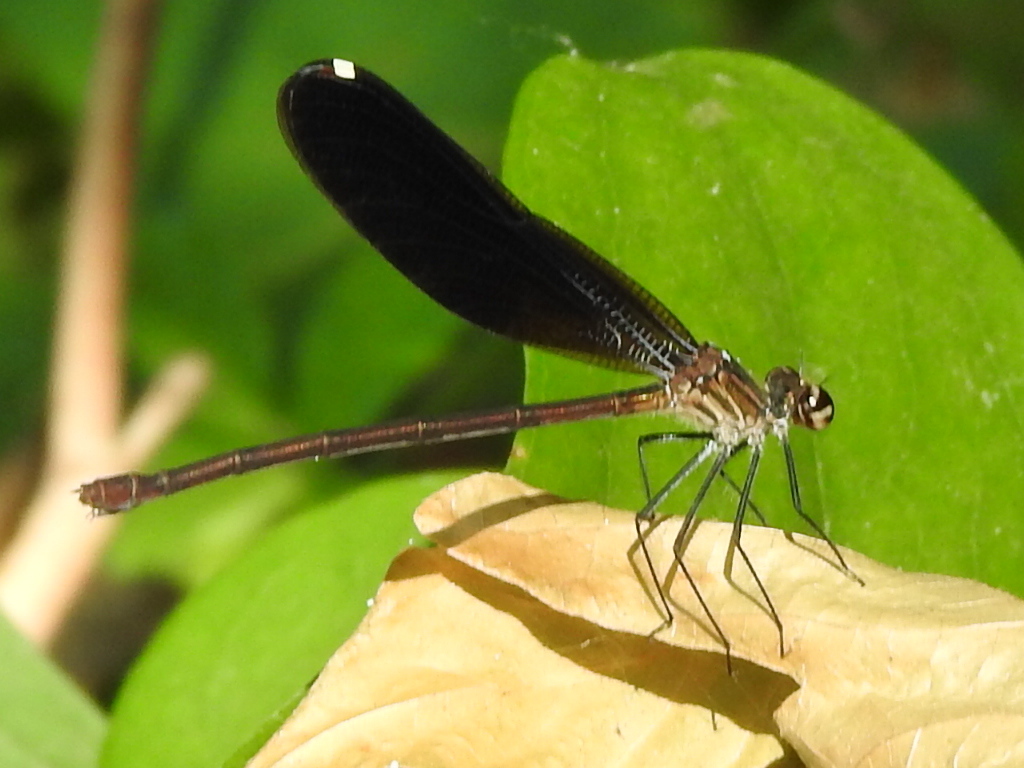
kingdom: Animalia
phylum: Arthropoda
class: Insecta
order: Odonata
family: Calopterygidae
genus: Hetaerina
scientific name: Hetaerina titia
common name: Smoky rubyspot
